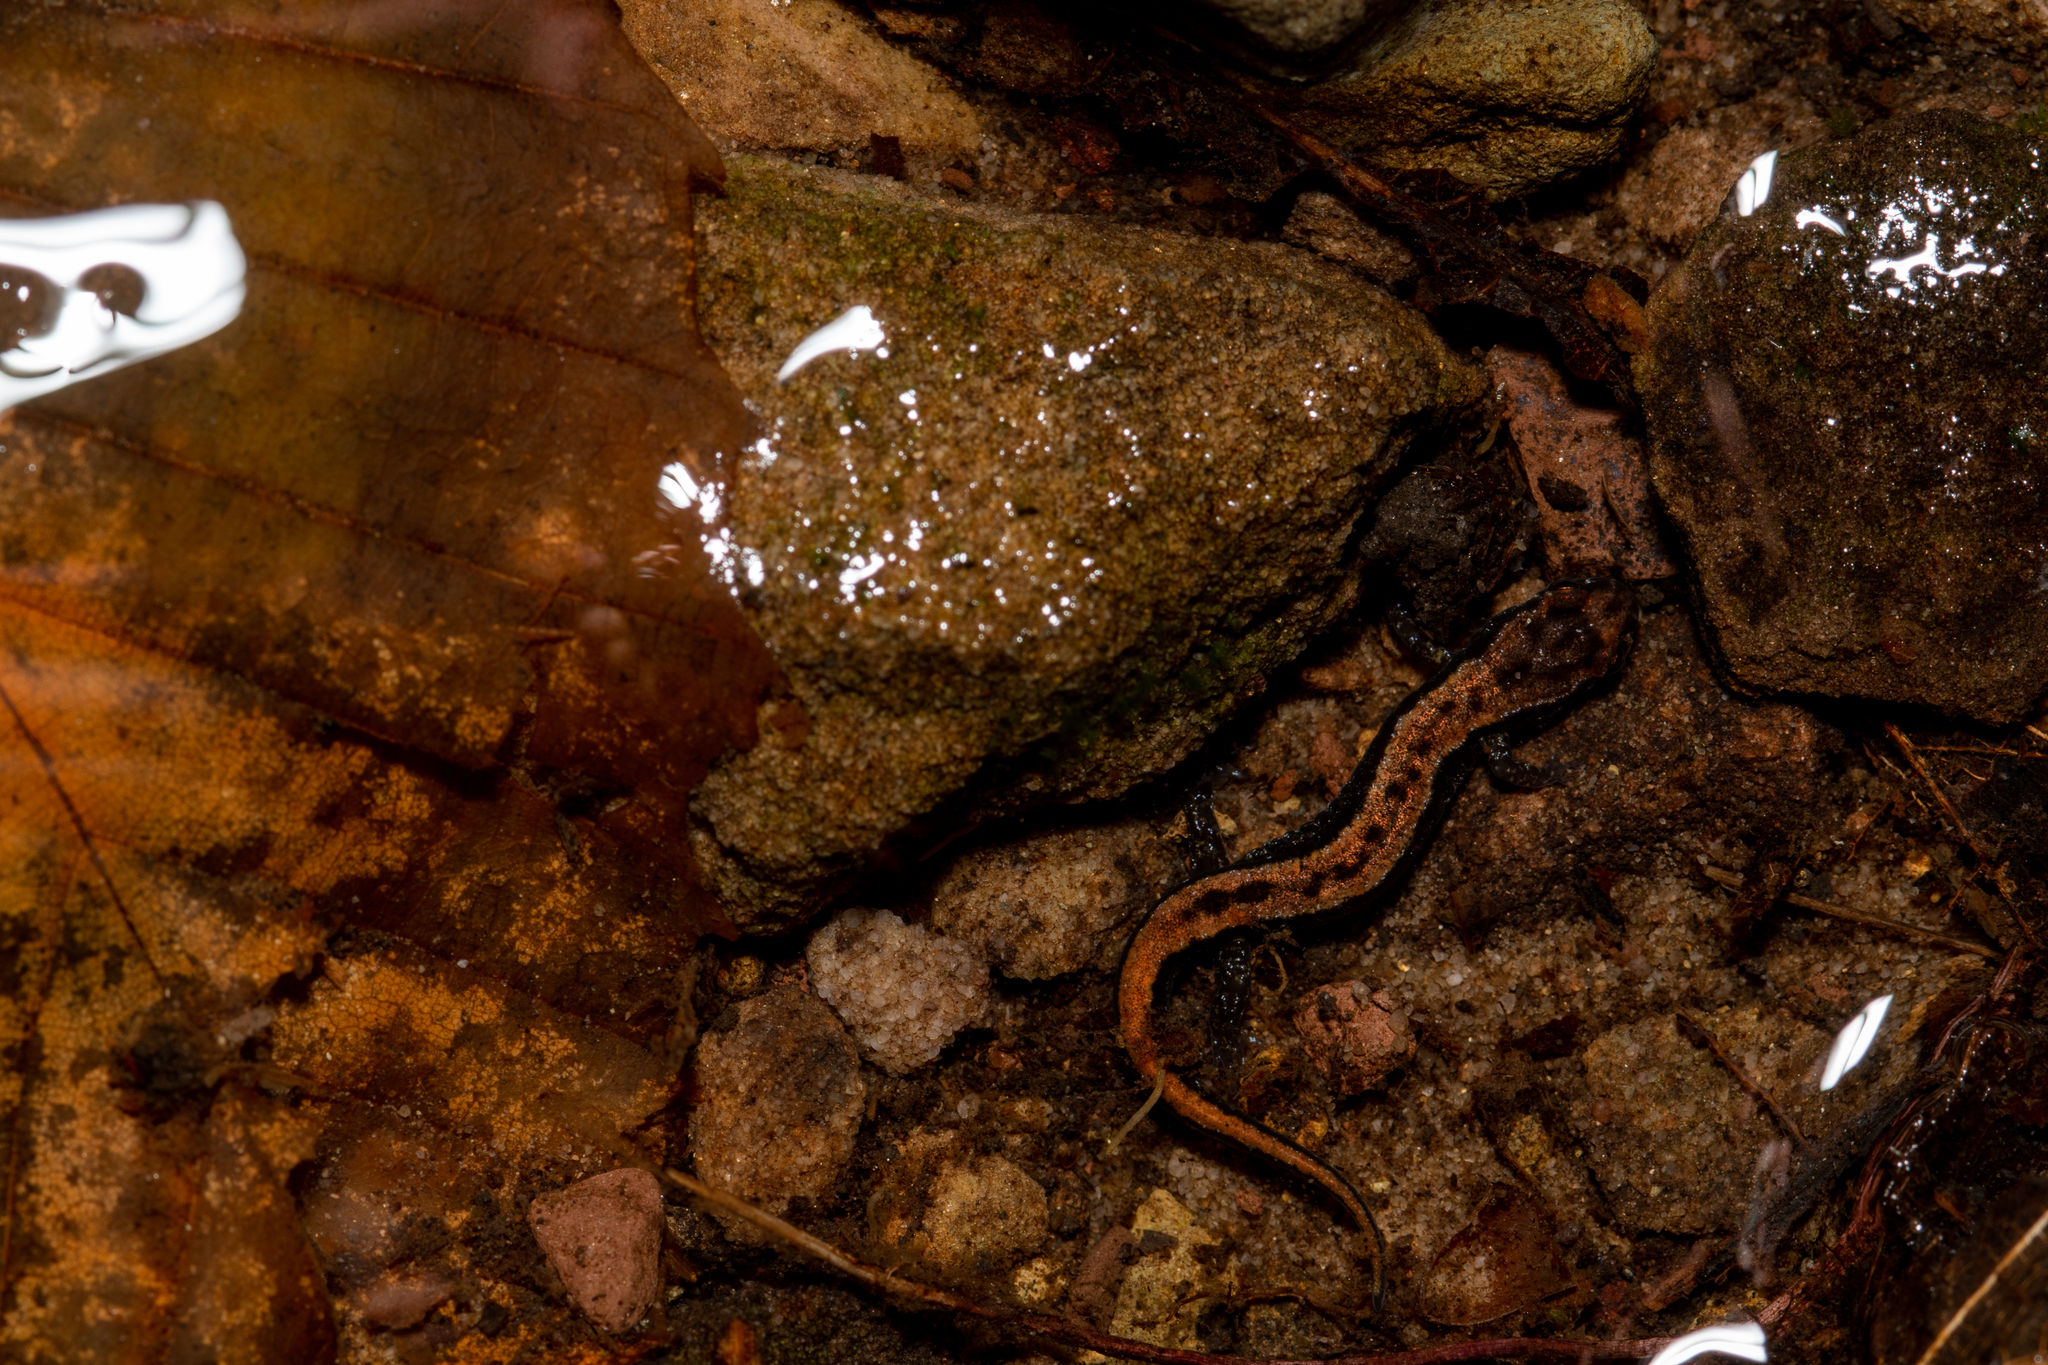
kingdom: Animalia
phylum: Chordata
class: Amphibia
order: Caudata
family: Plethodontidae
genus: Desmognathus
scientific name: Desmognathus ochrophaeus
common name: Allegheny mountain dusky salamander
